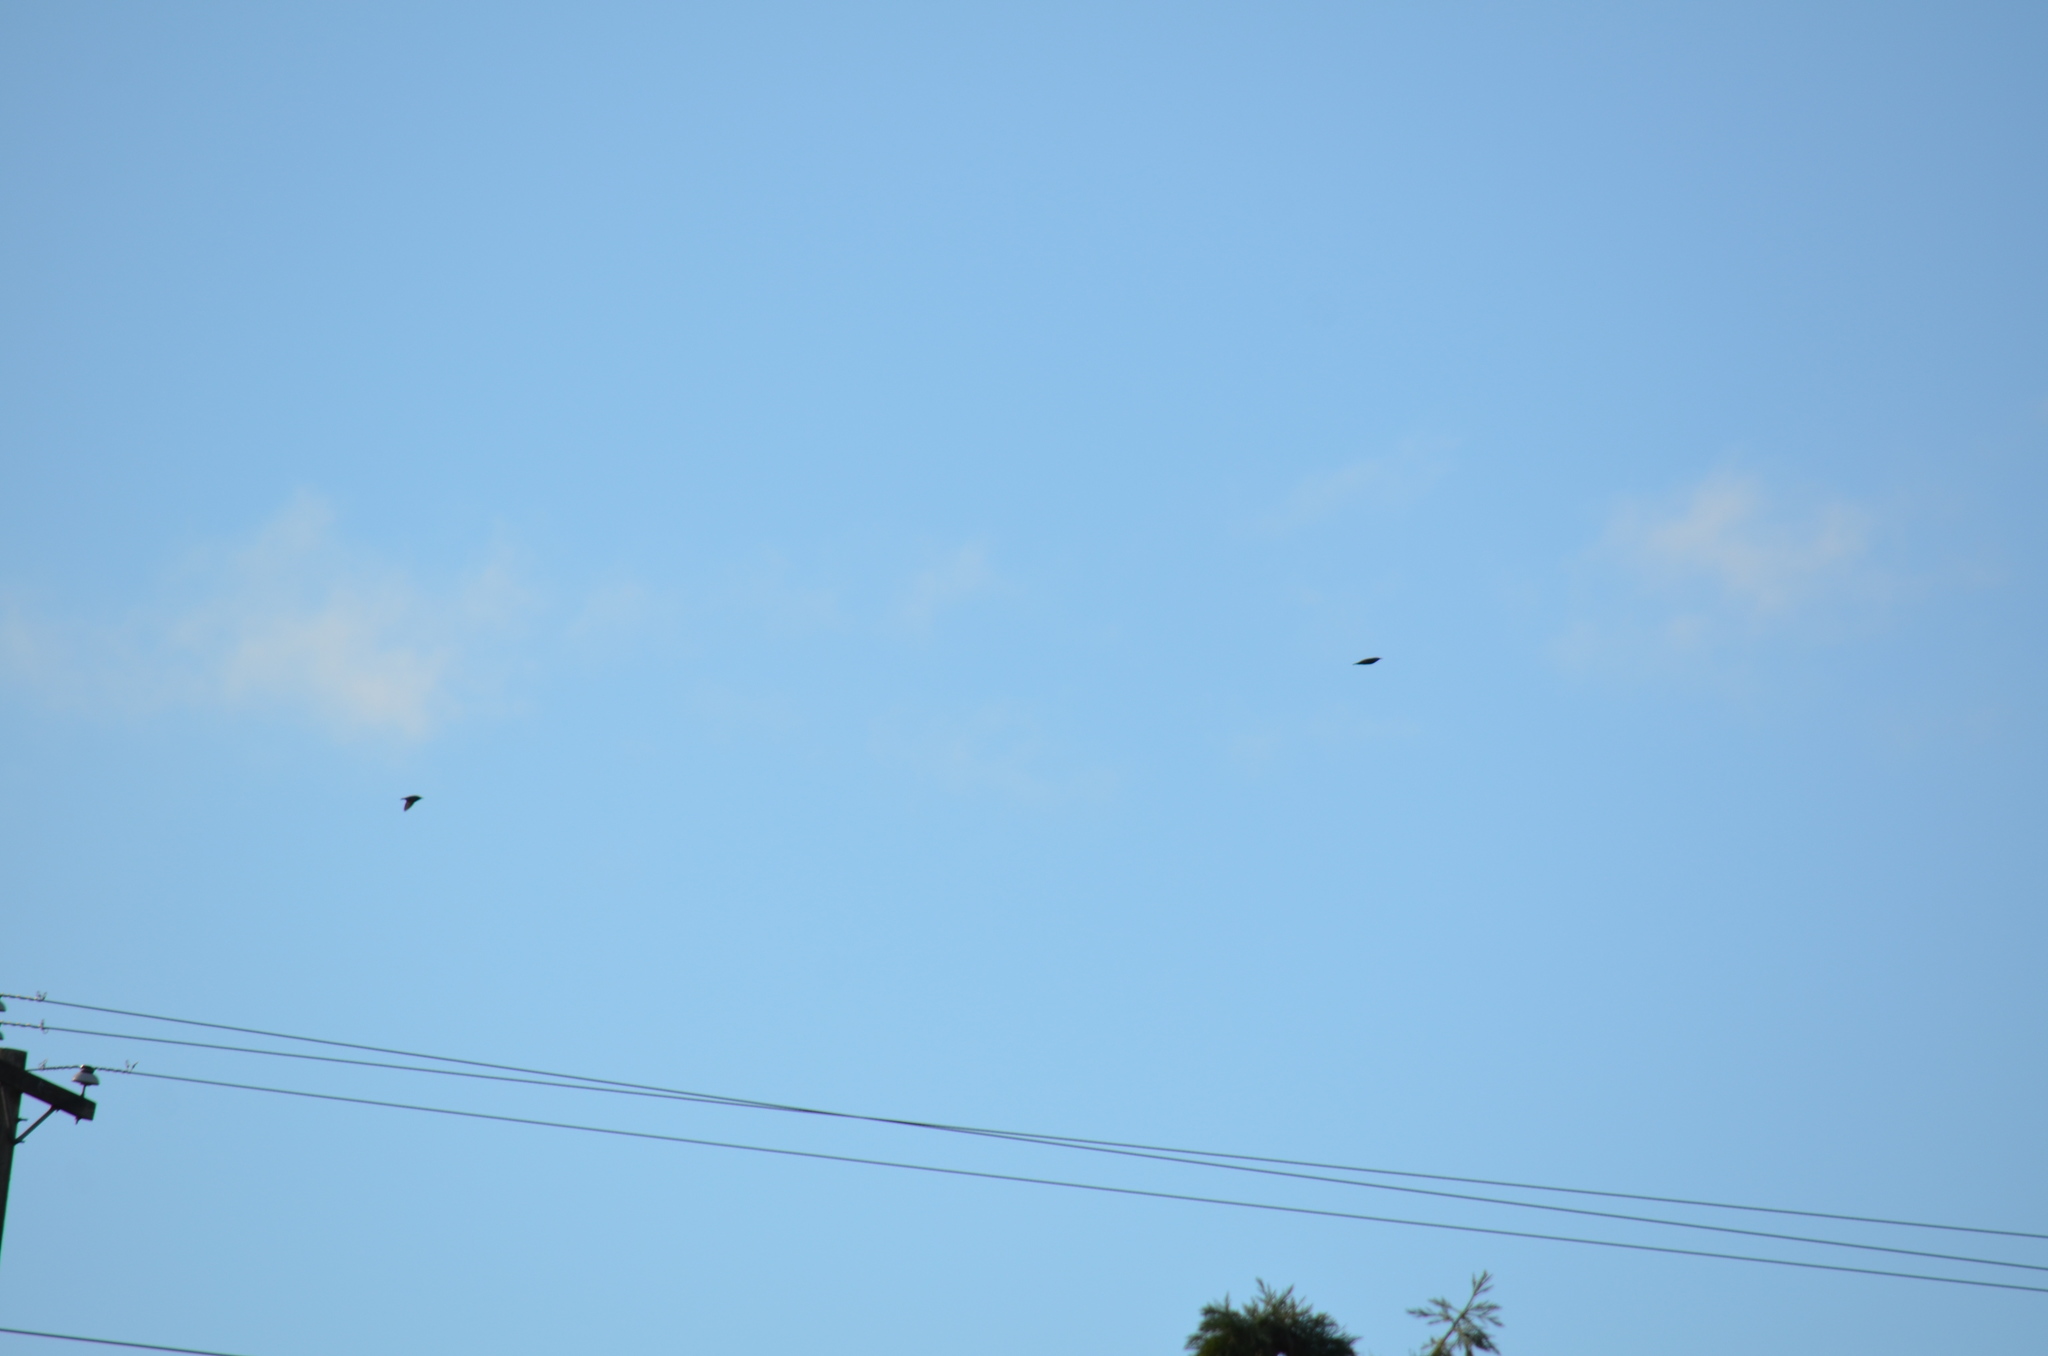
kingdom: Animalia
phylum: Chordata
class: Aves
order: Passeriformes
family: Sturnidae
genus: Sturnus
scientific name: Sturnus vulgaris
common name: Common starling
